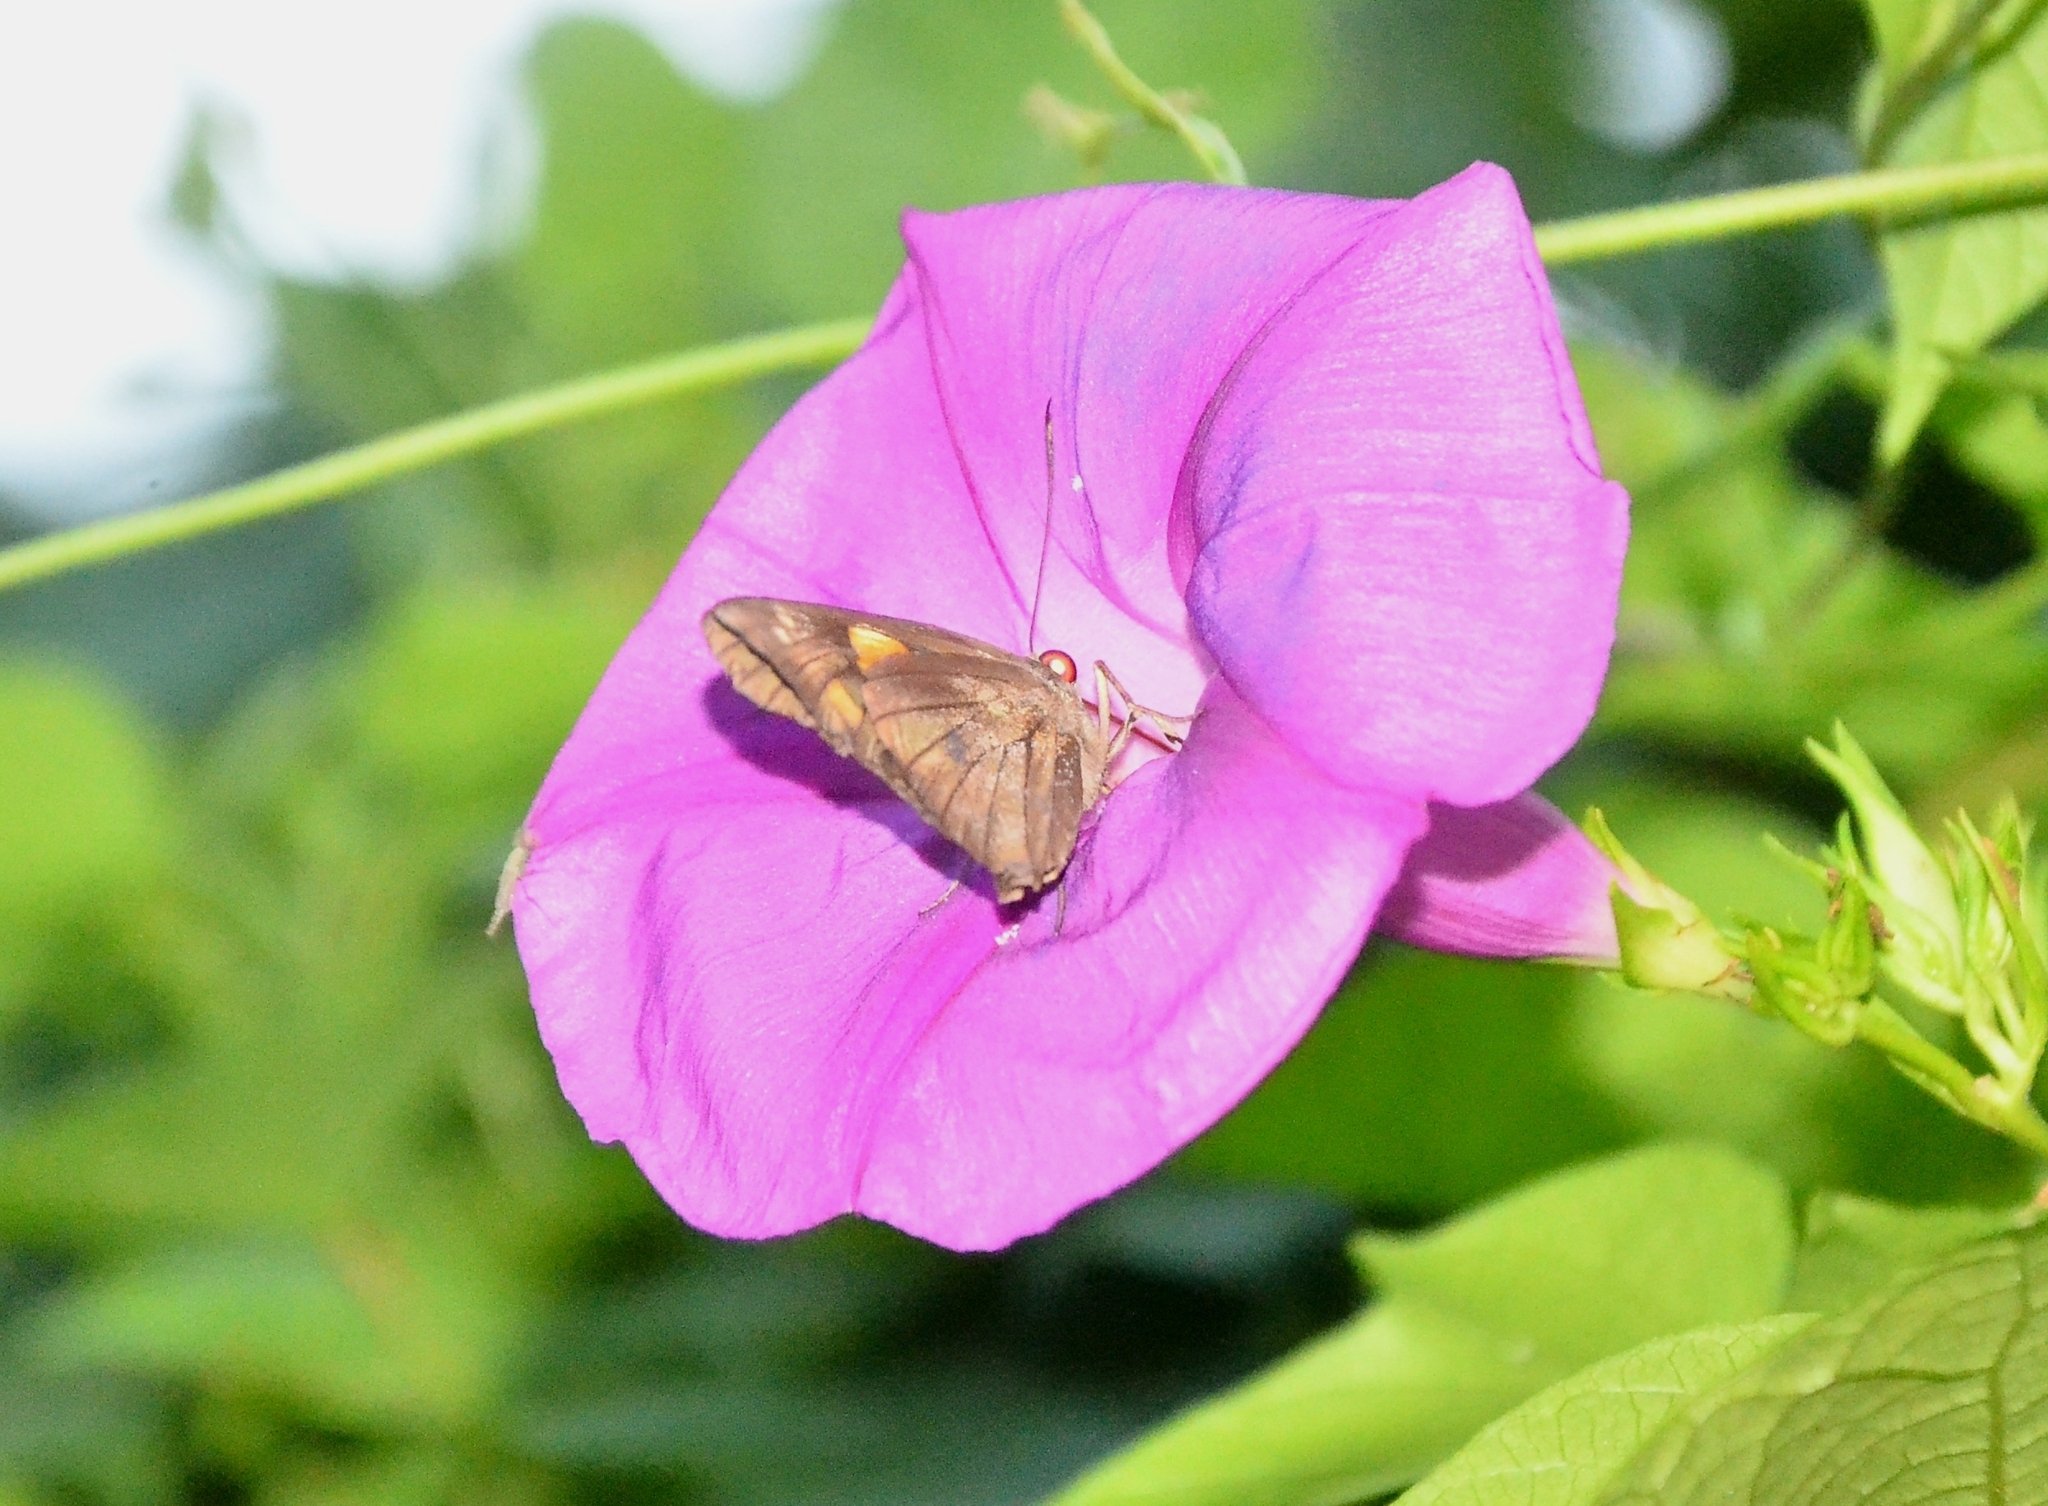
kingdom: Animalia
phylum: Arthropoda
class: Insecta
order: Lepidoptera
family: Hesperiidae
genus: Gangara
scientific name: Gangara thyrsis
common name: Giant redeye
